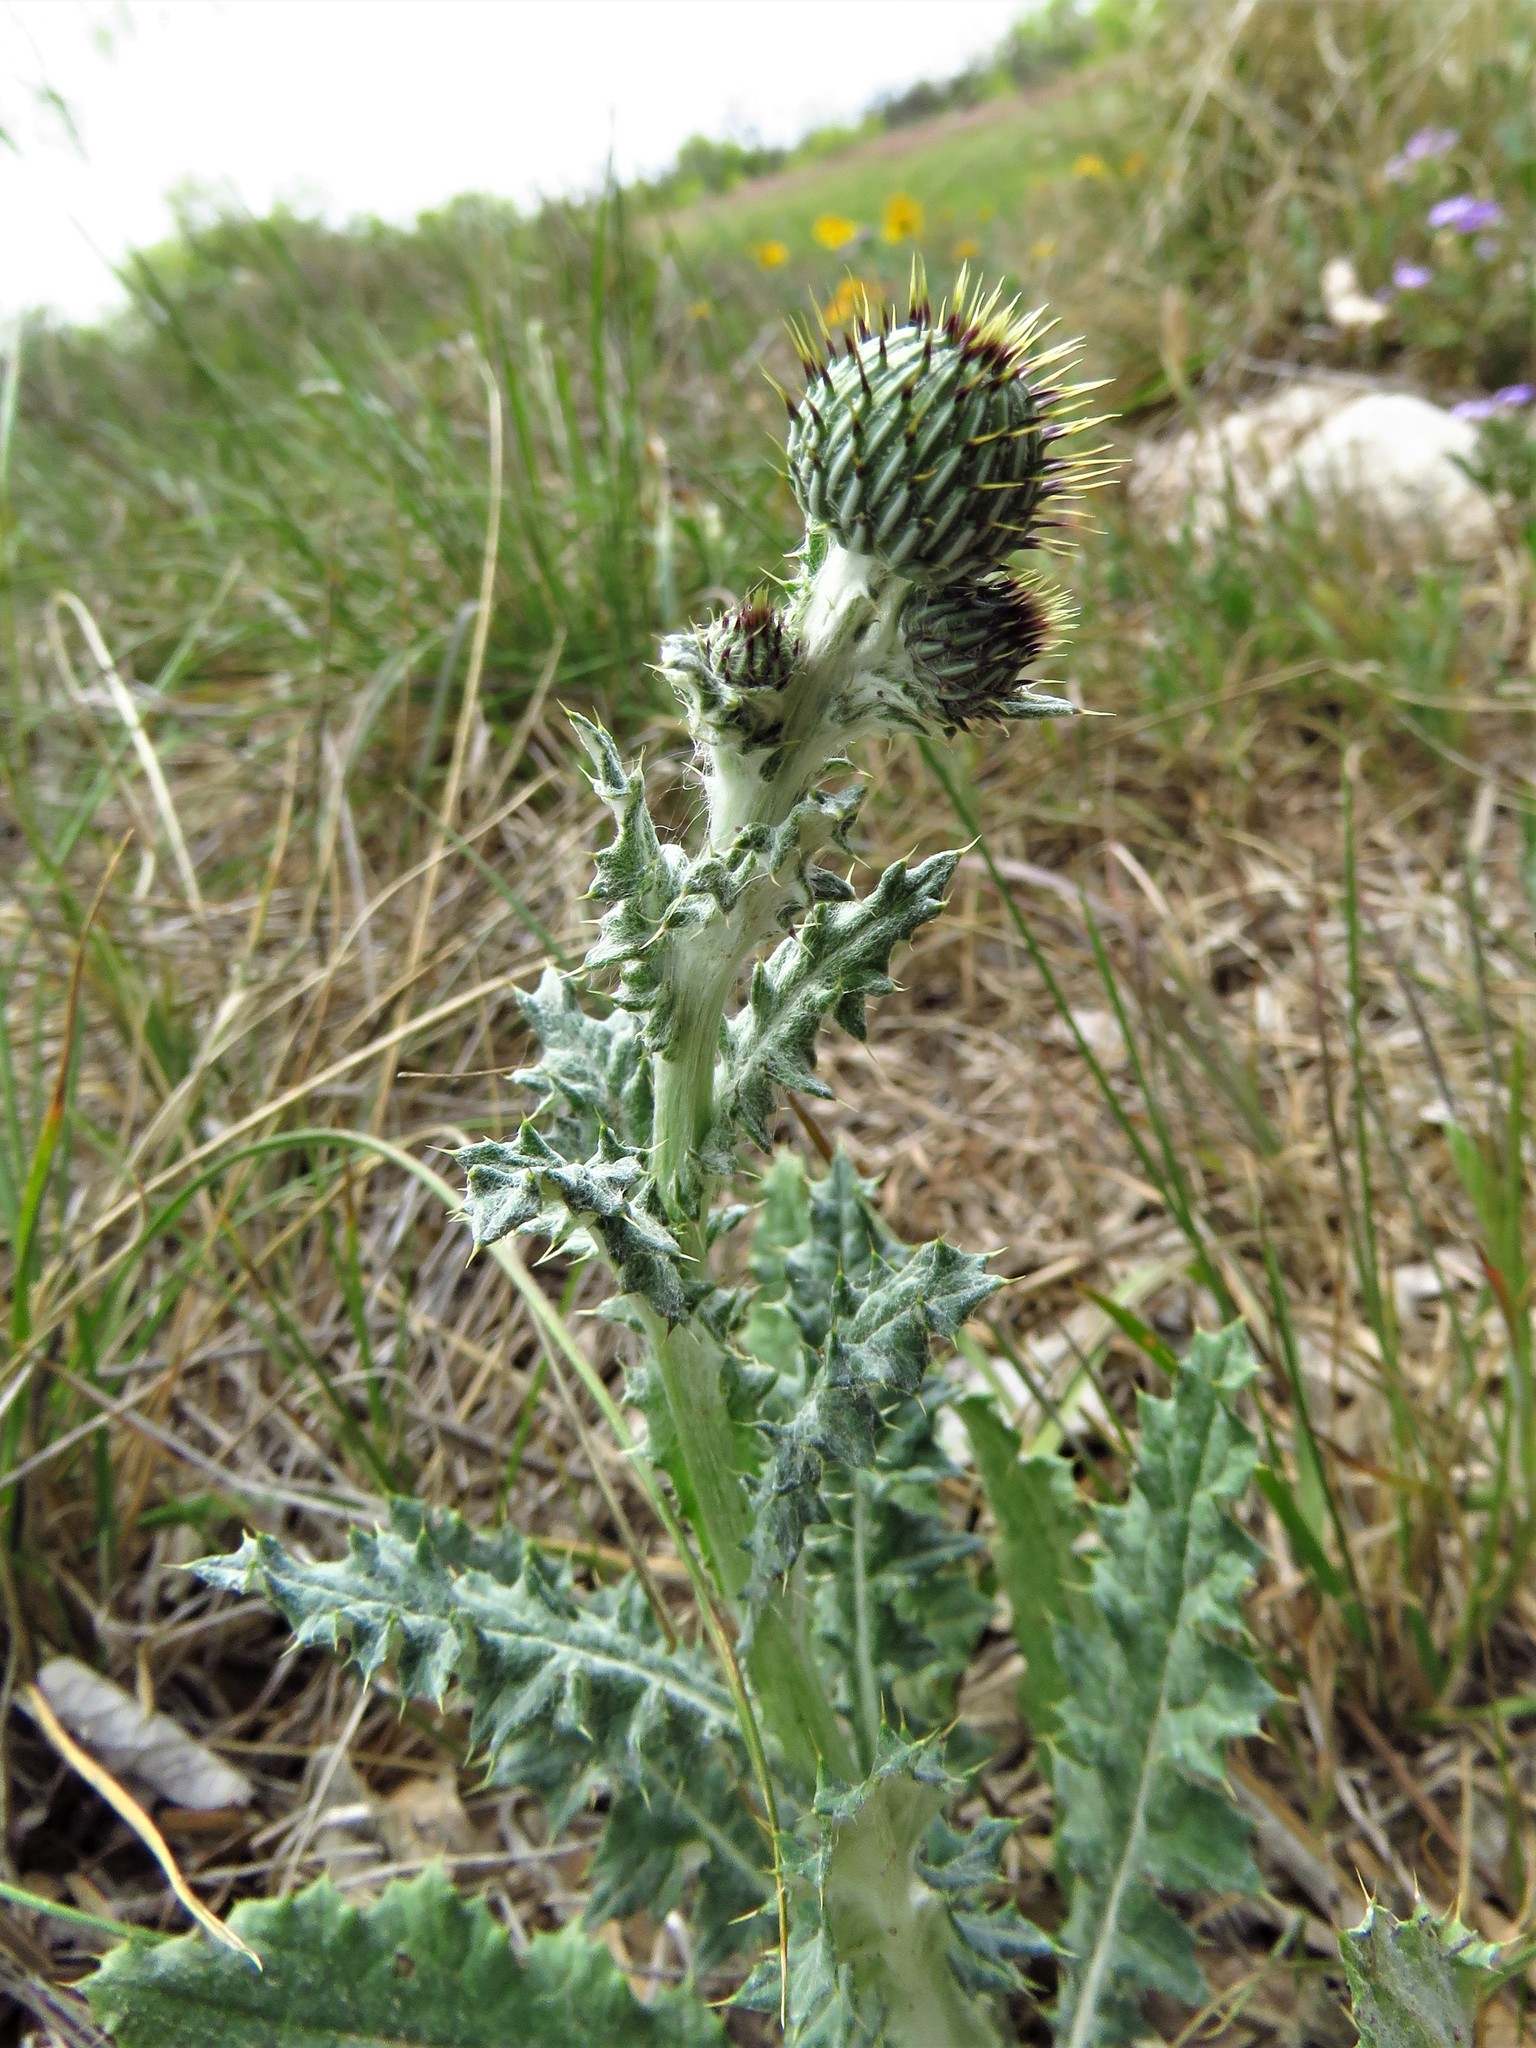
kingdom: Plantae
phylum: Tracheophyta
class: Magnoliopsida
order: Asterales
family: Asteraceae
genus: Cirsium
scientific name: Cirsium texanum
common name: Texas purple thistle
